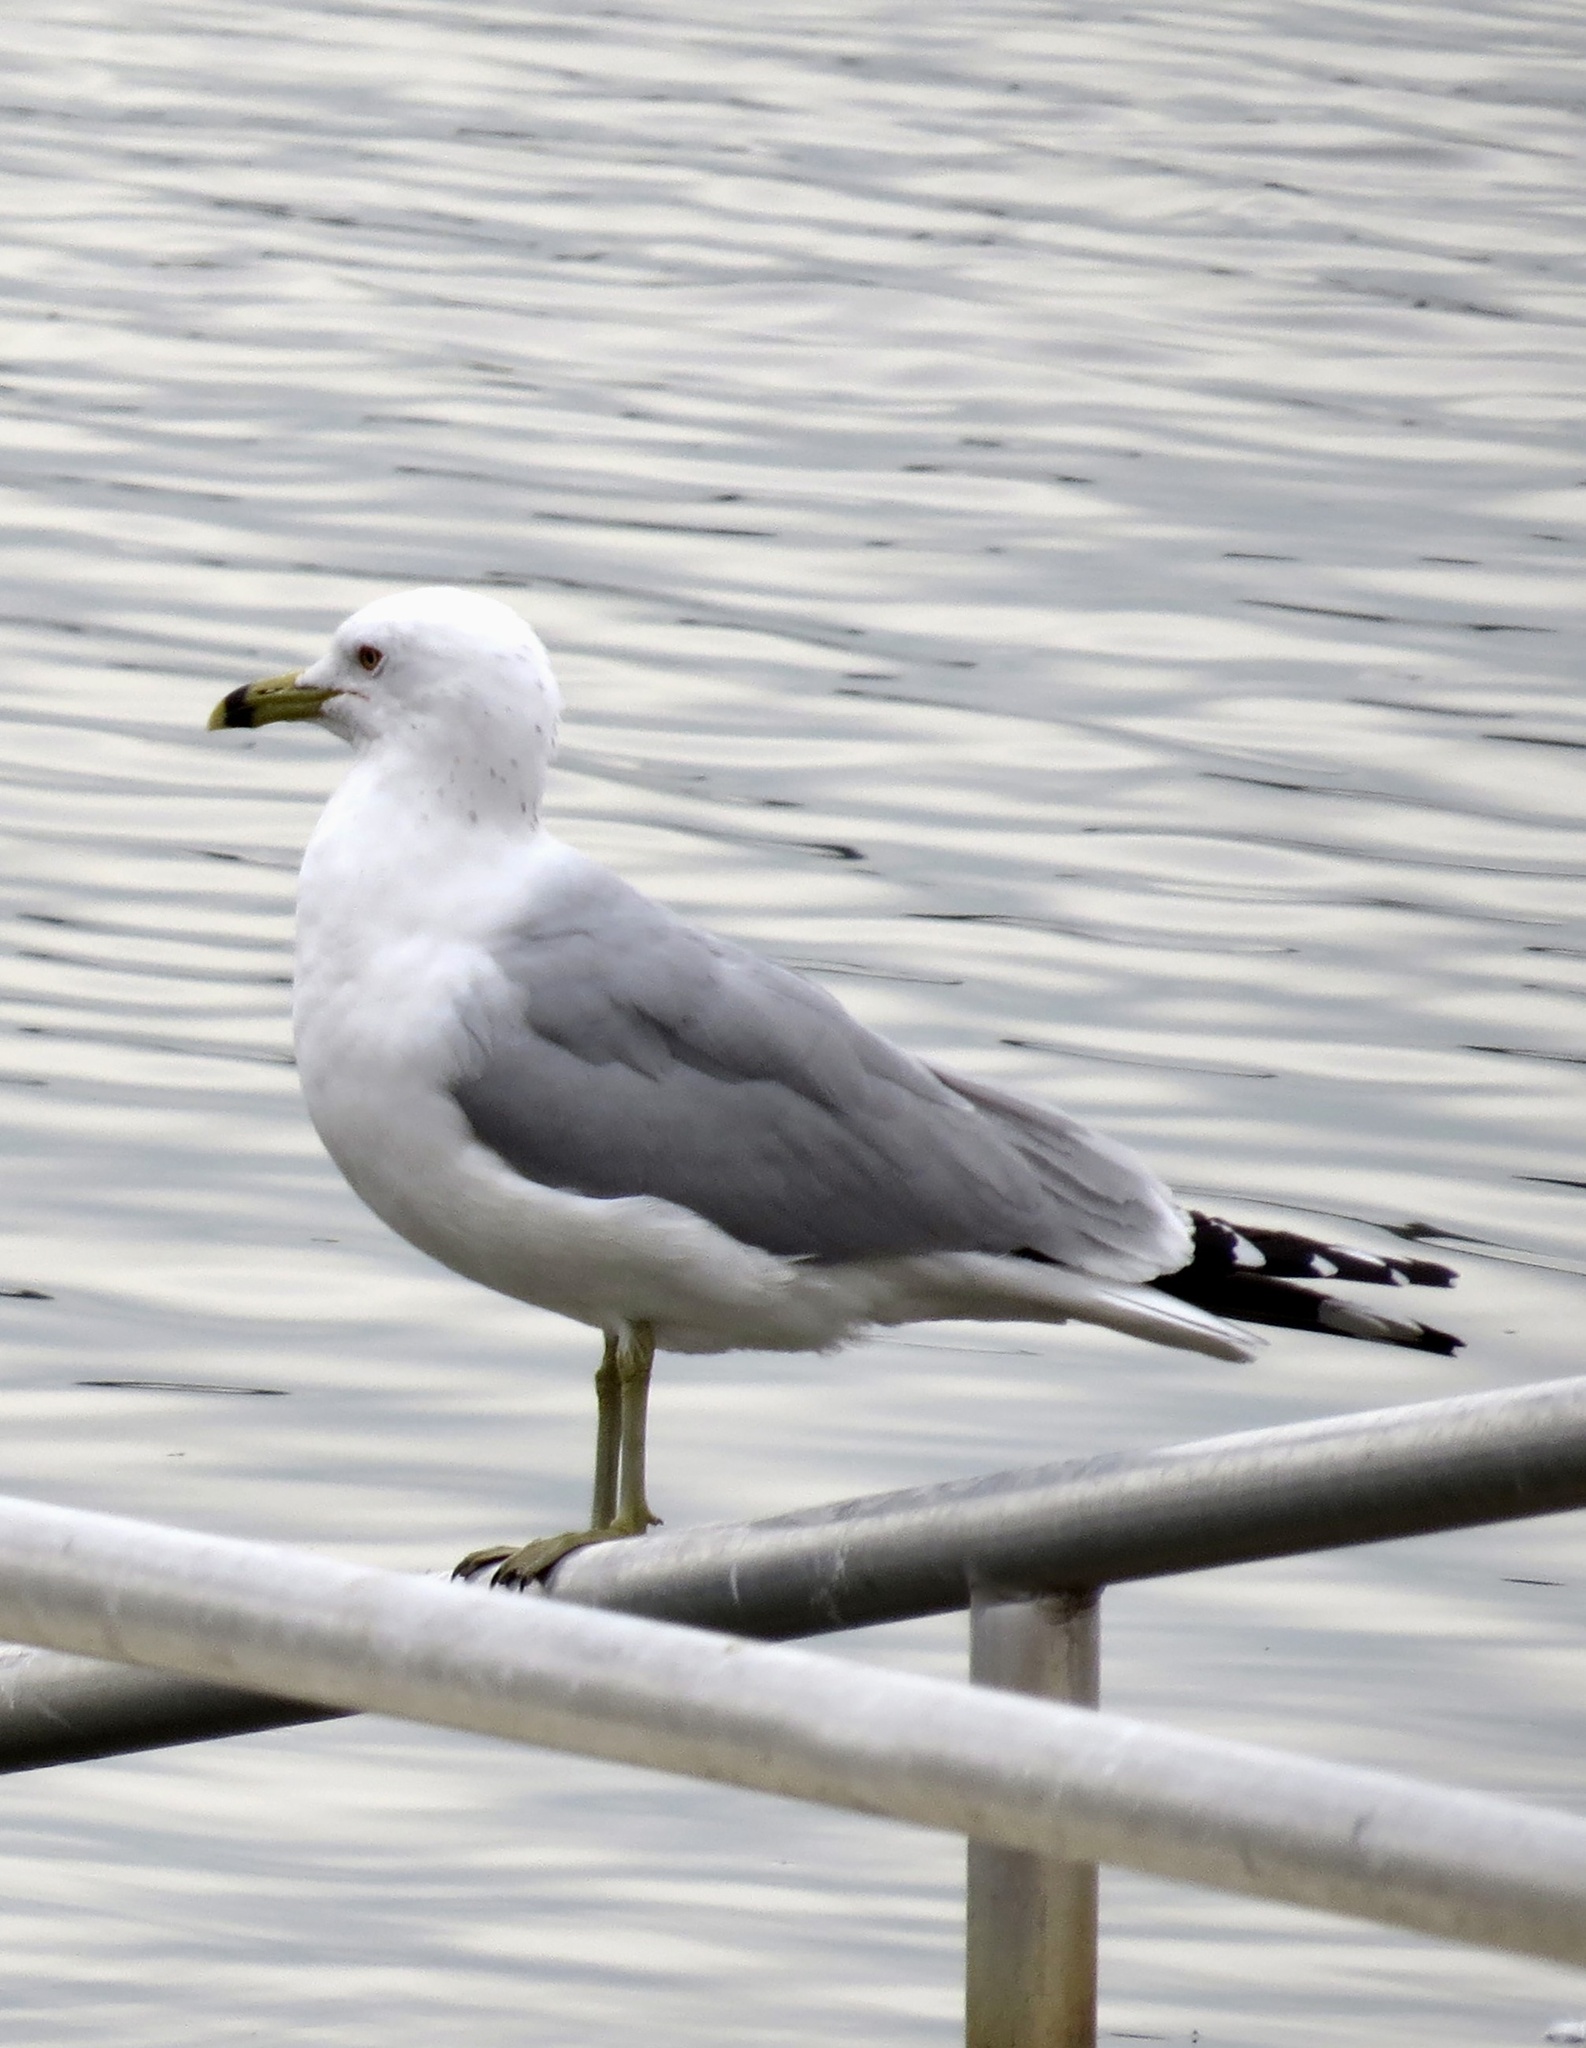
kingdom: Animalia
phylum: Chordata
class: Aves
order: Charadriiformes
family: Laridae
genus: Larus
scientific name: Larus delawarensis
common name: Ring-billed gull
